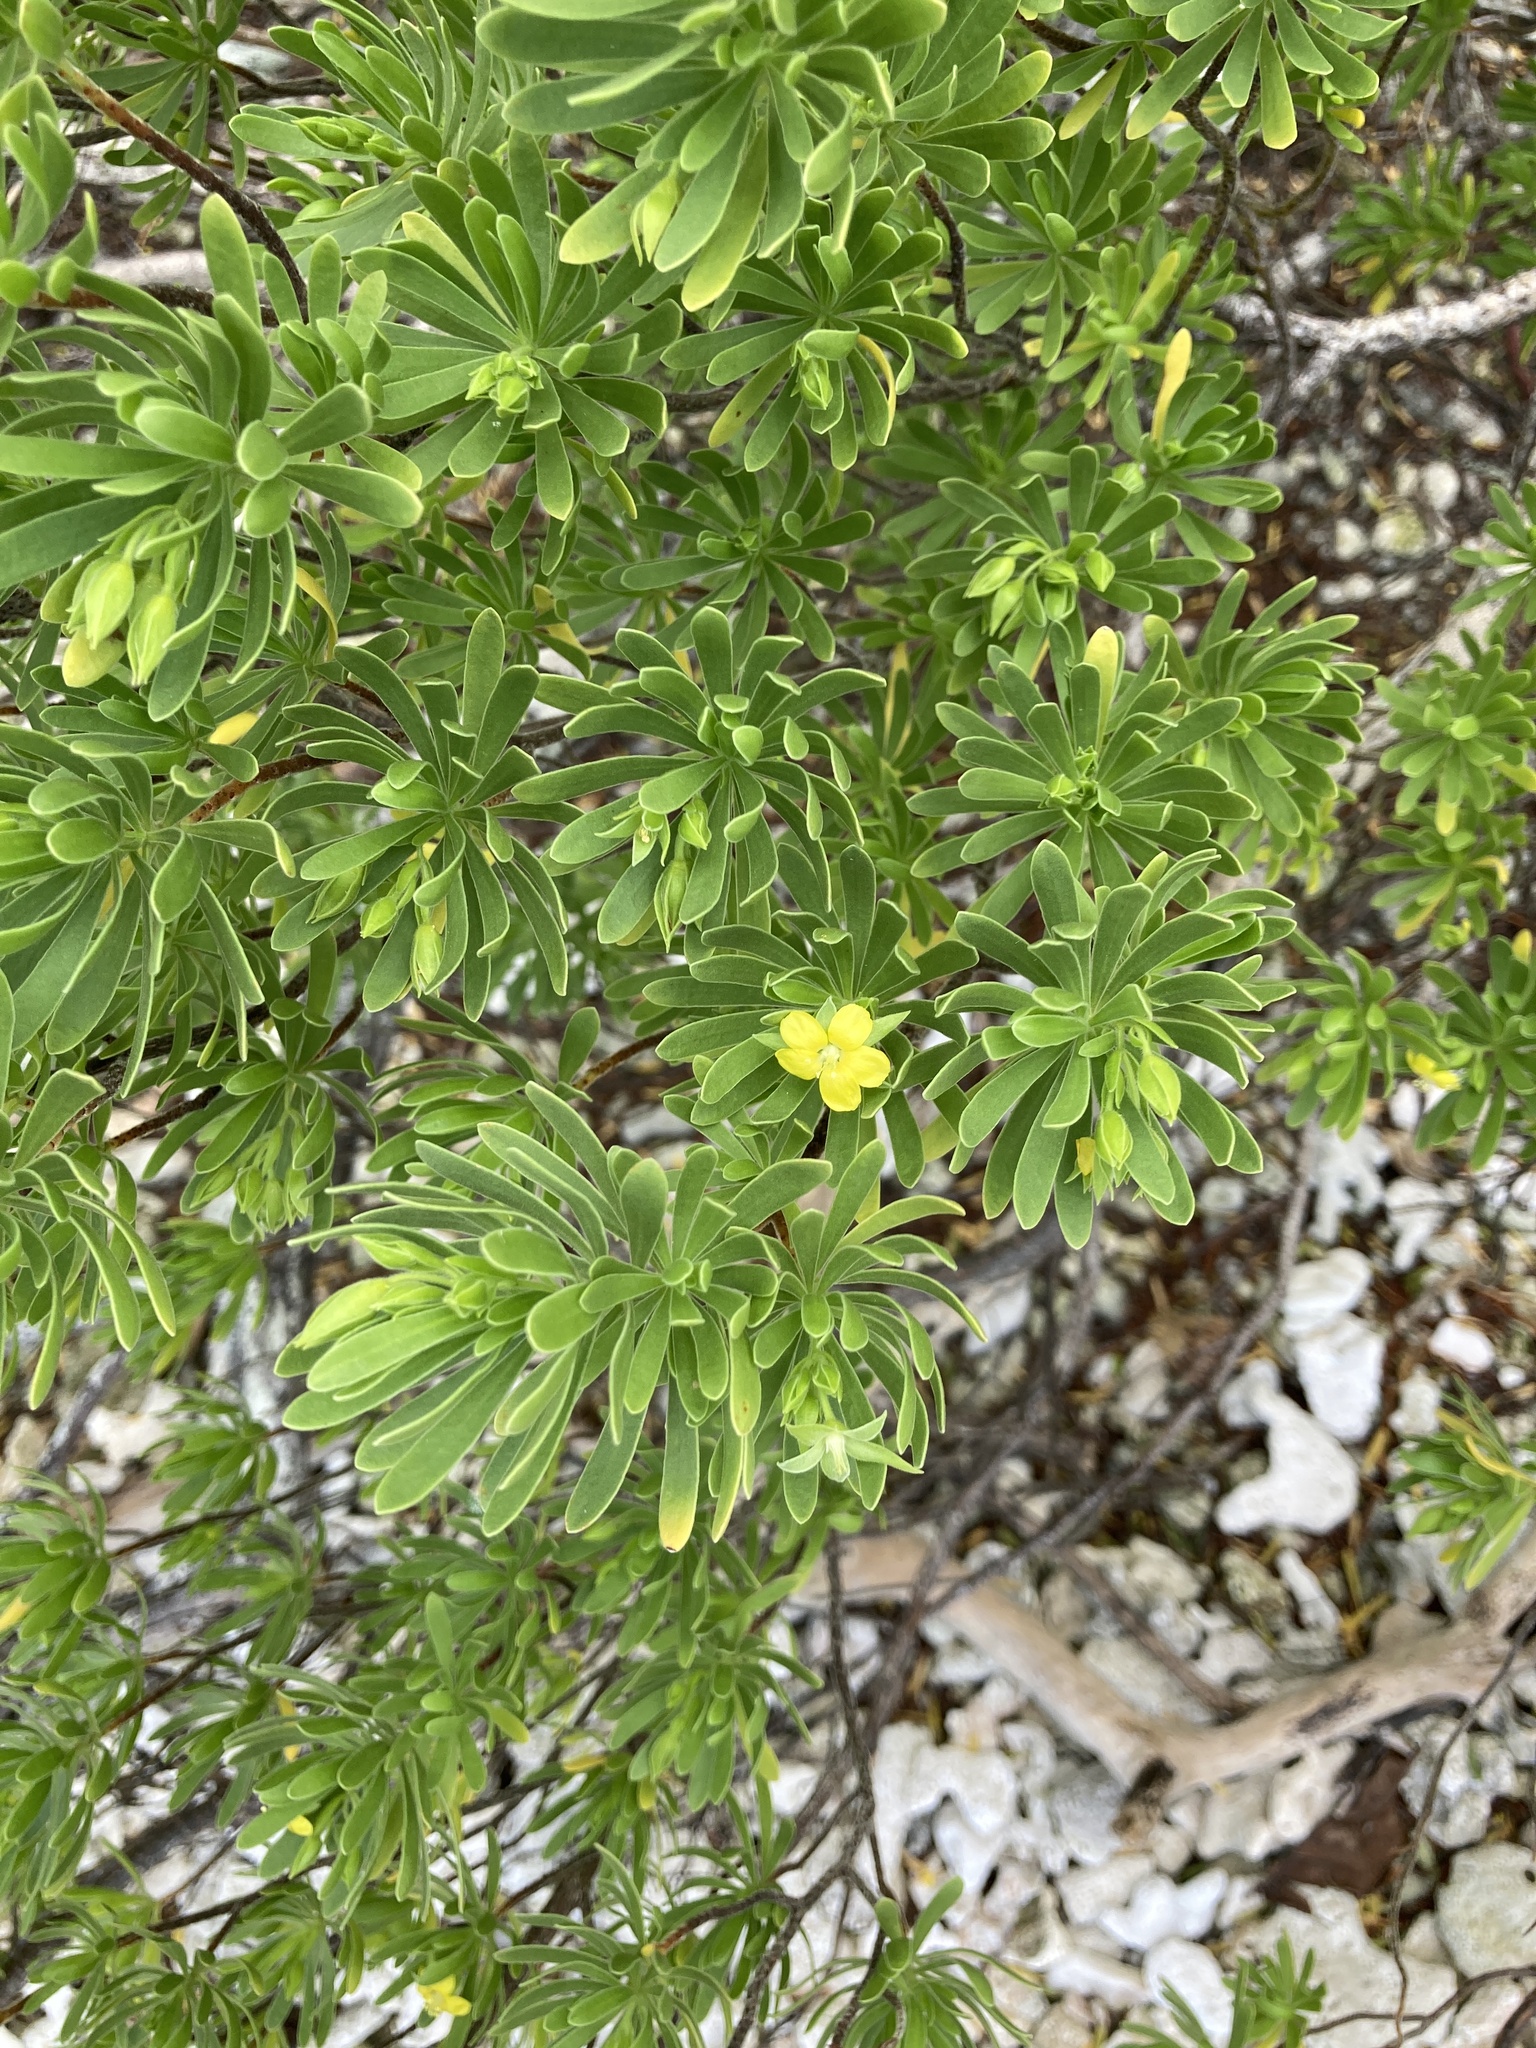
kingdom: Plantae
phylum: Tracheophyta
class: Magnoliopsida
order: Fabales
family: Surianaceae
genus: Suriana
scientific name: Suriana maritima
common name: Bay-cedar
